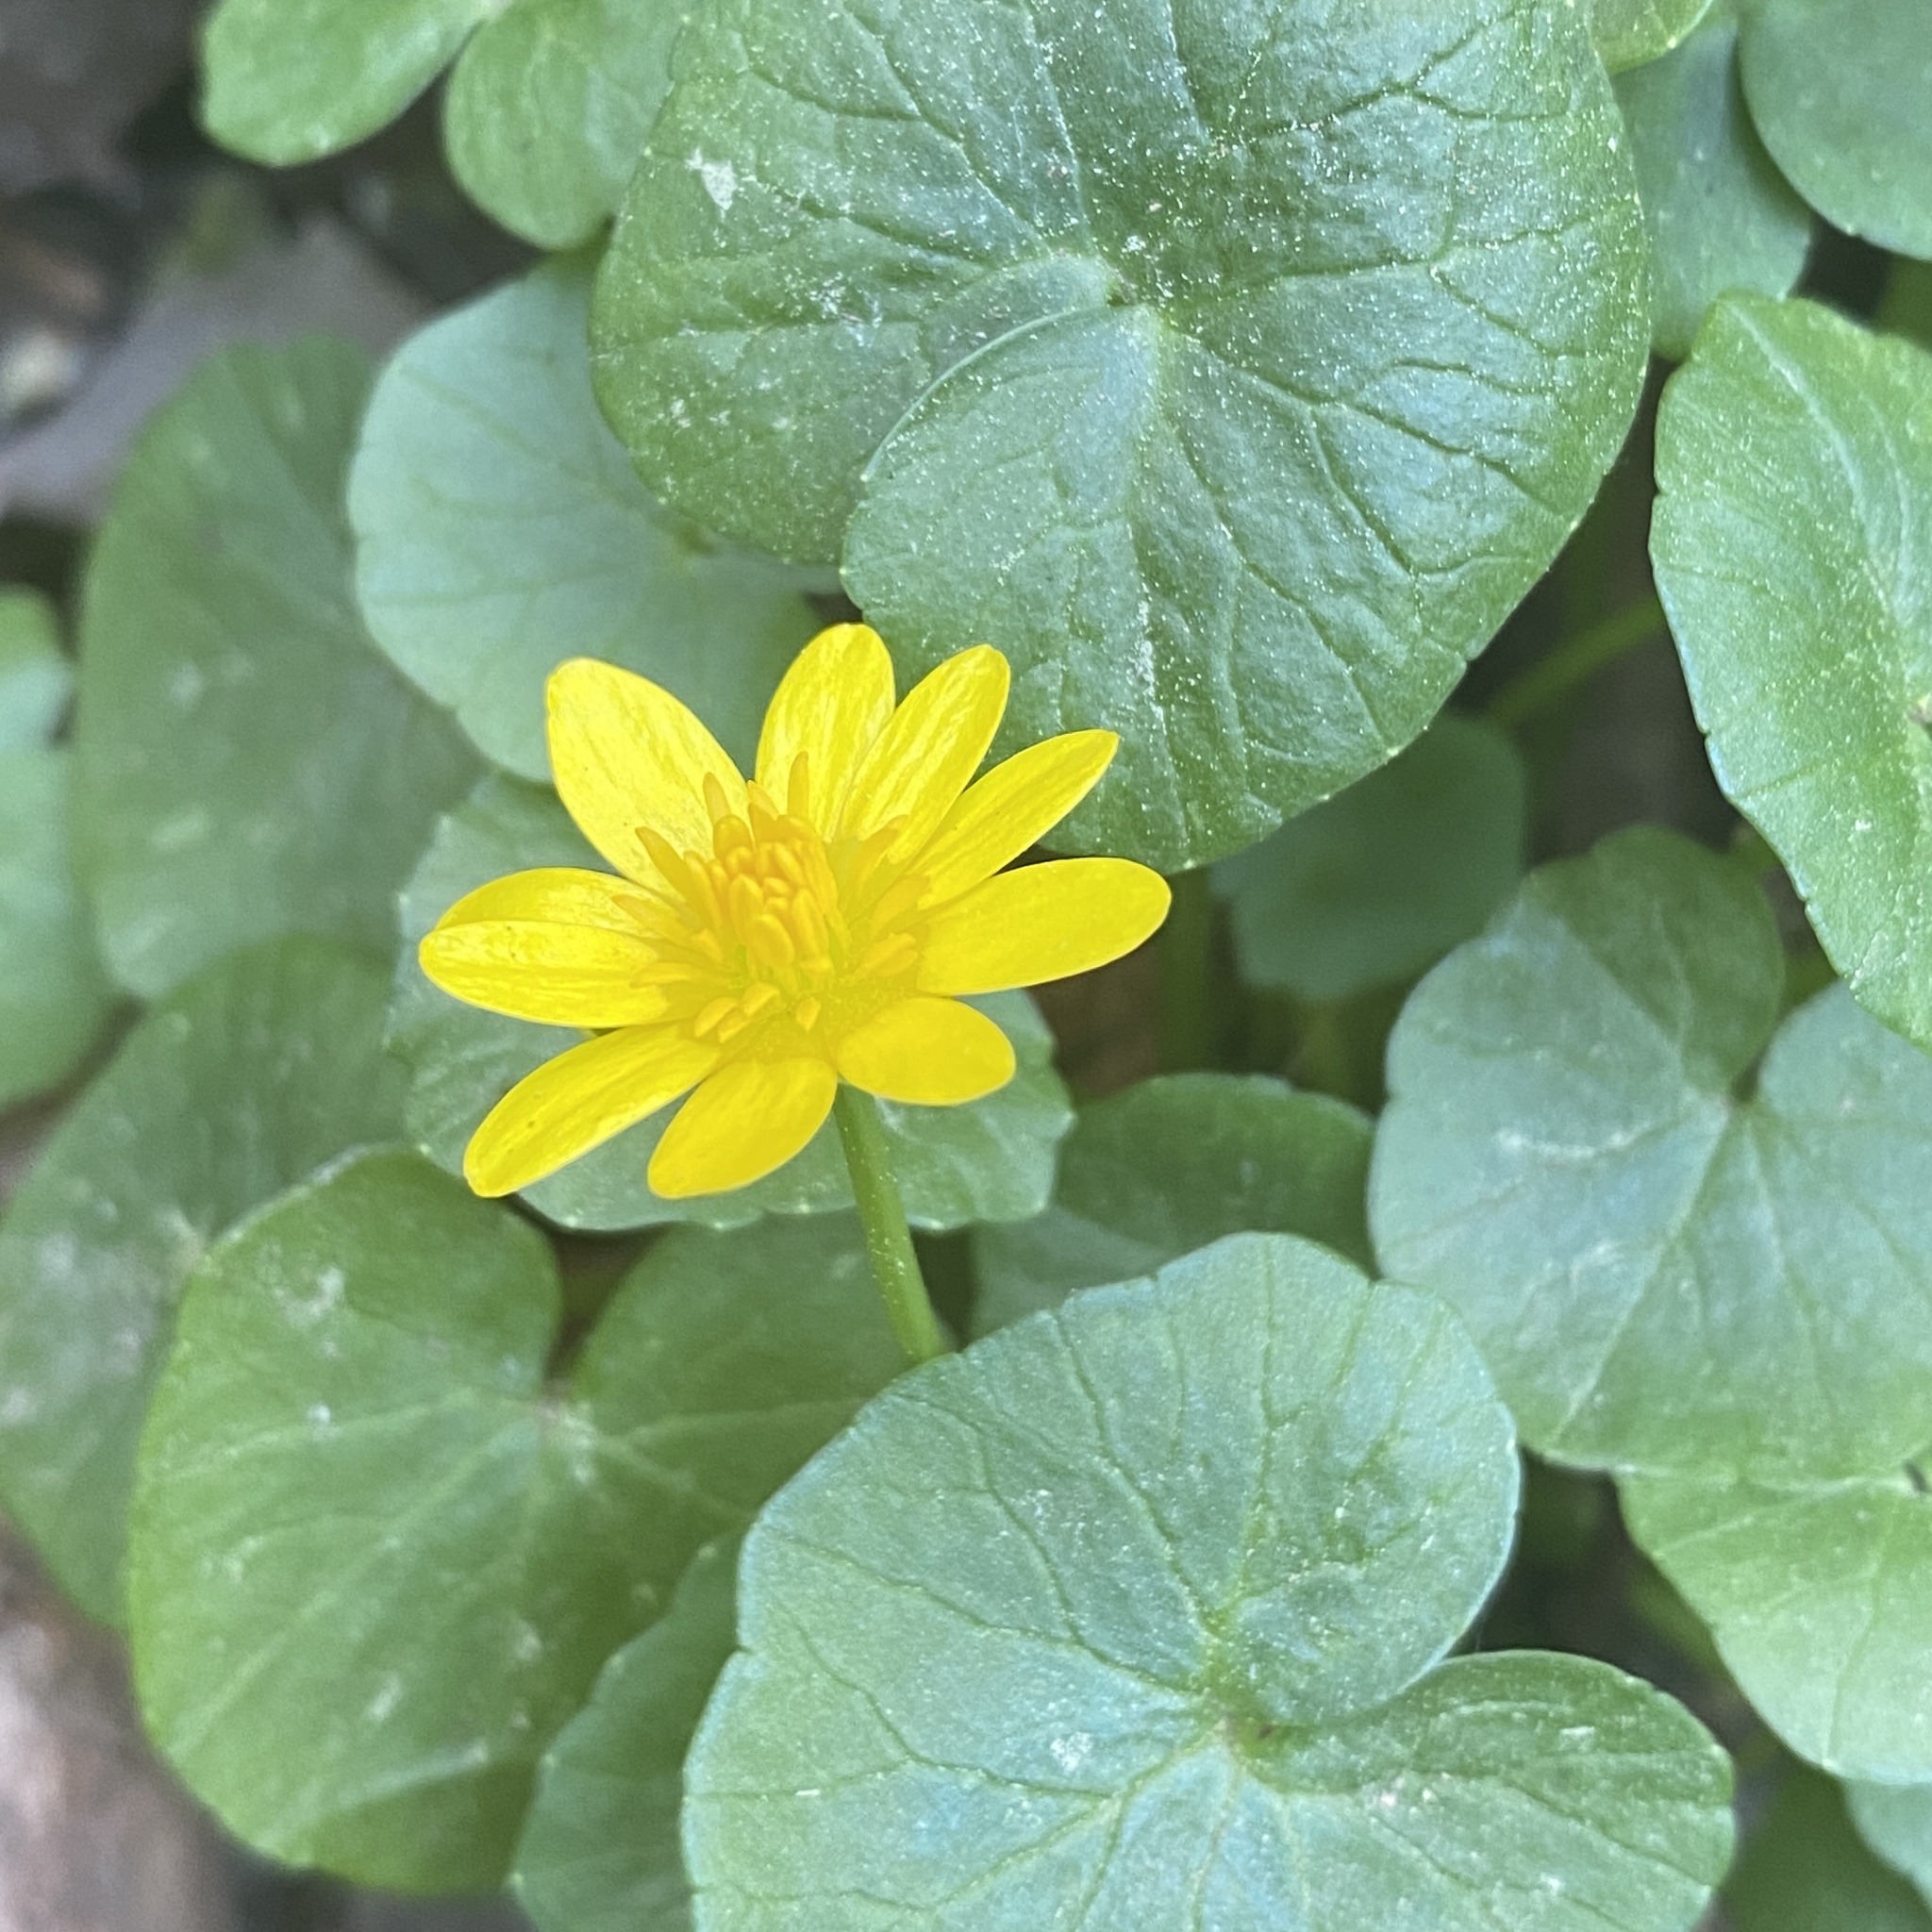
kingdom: Plantae
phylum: Tracheophyta
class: Magnoliopsida
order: Ranunculales
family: Ranunculaceae
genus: Ficaria
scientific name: Ficaria verna
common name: Lesser celandine
